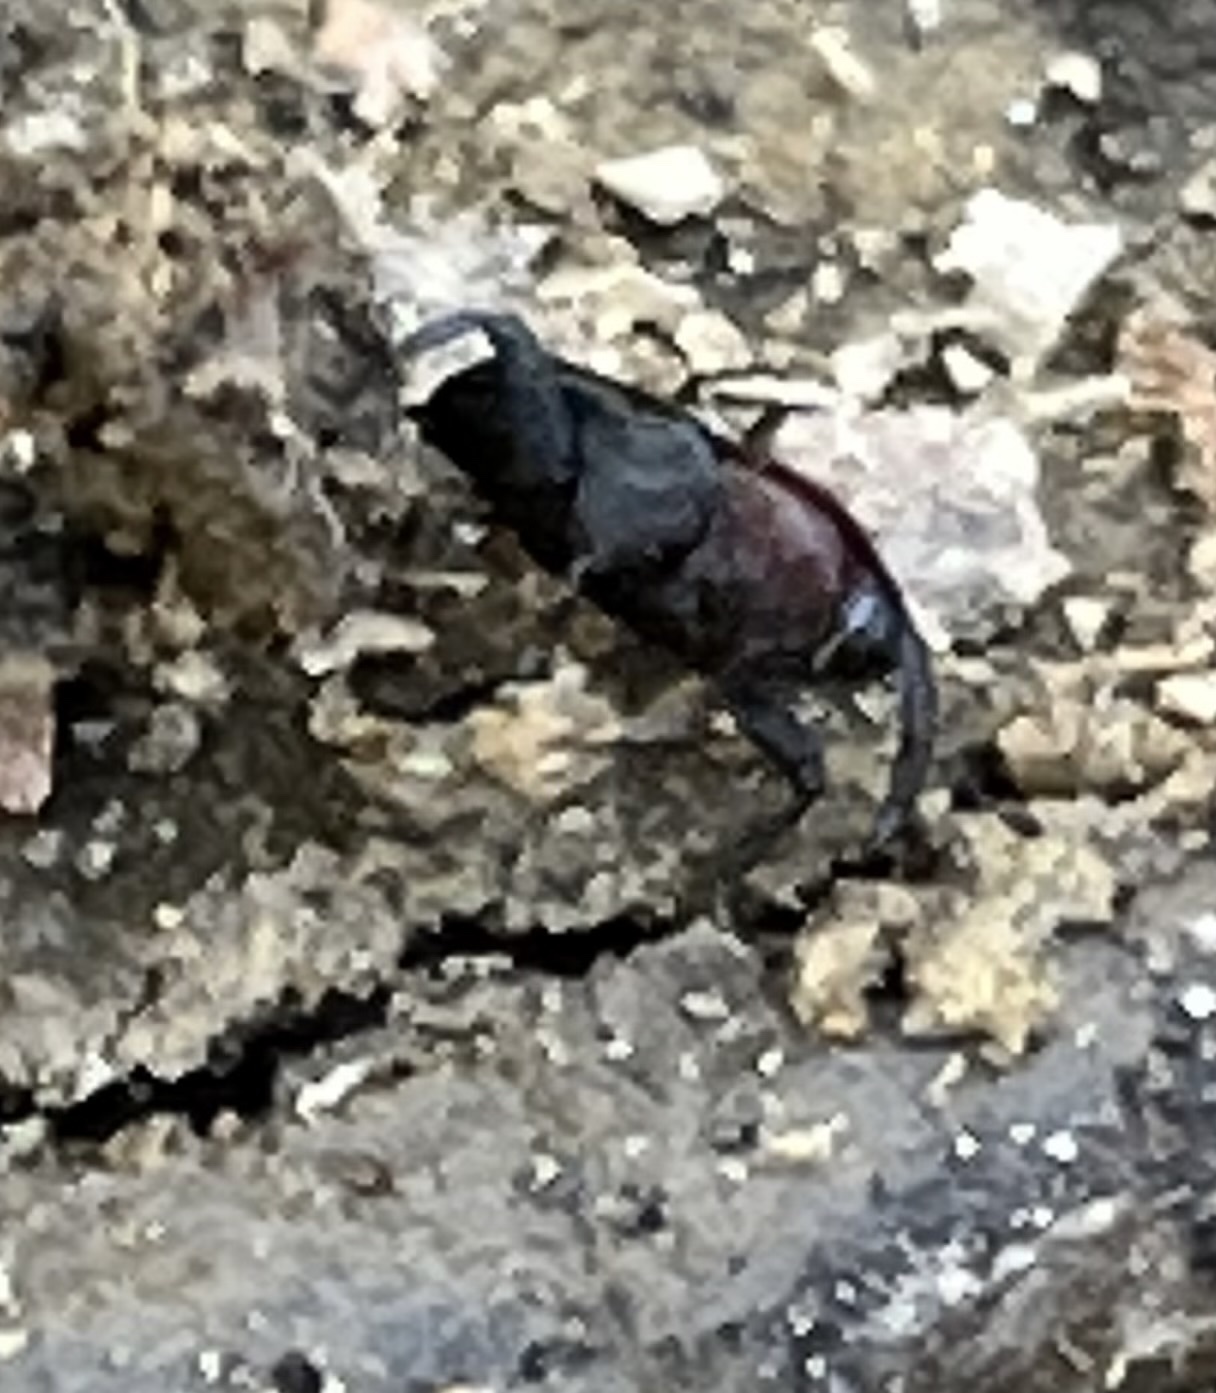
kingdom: Animalia
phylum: Arthropoda
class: Insecta
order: Coleoptera
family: Curculionidae
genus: Madarellus
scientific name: Madarellus undulatus
